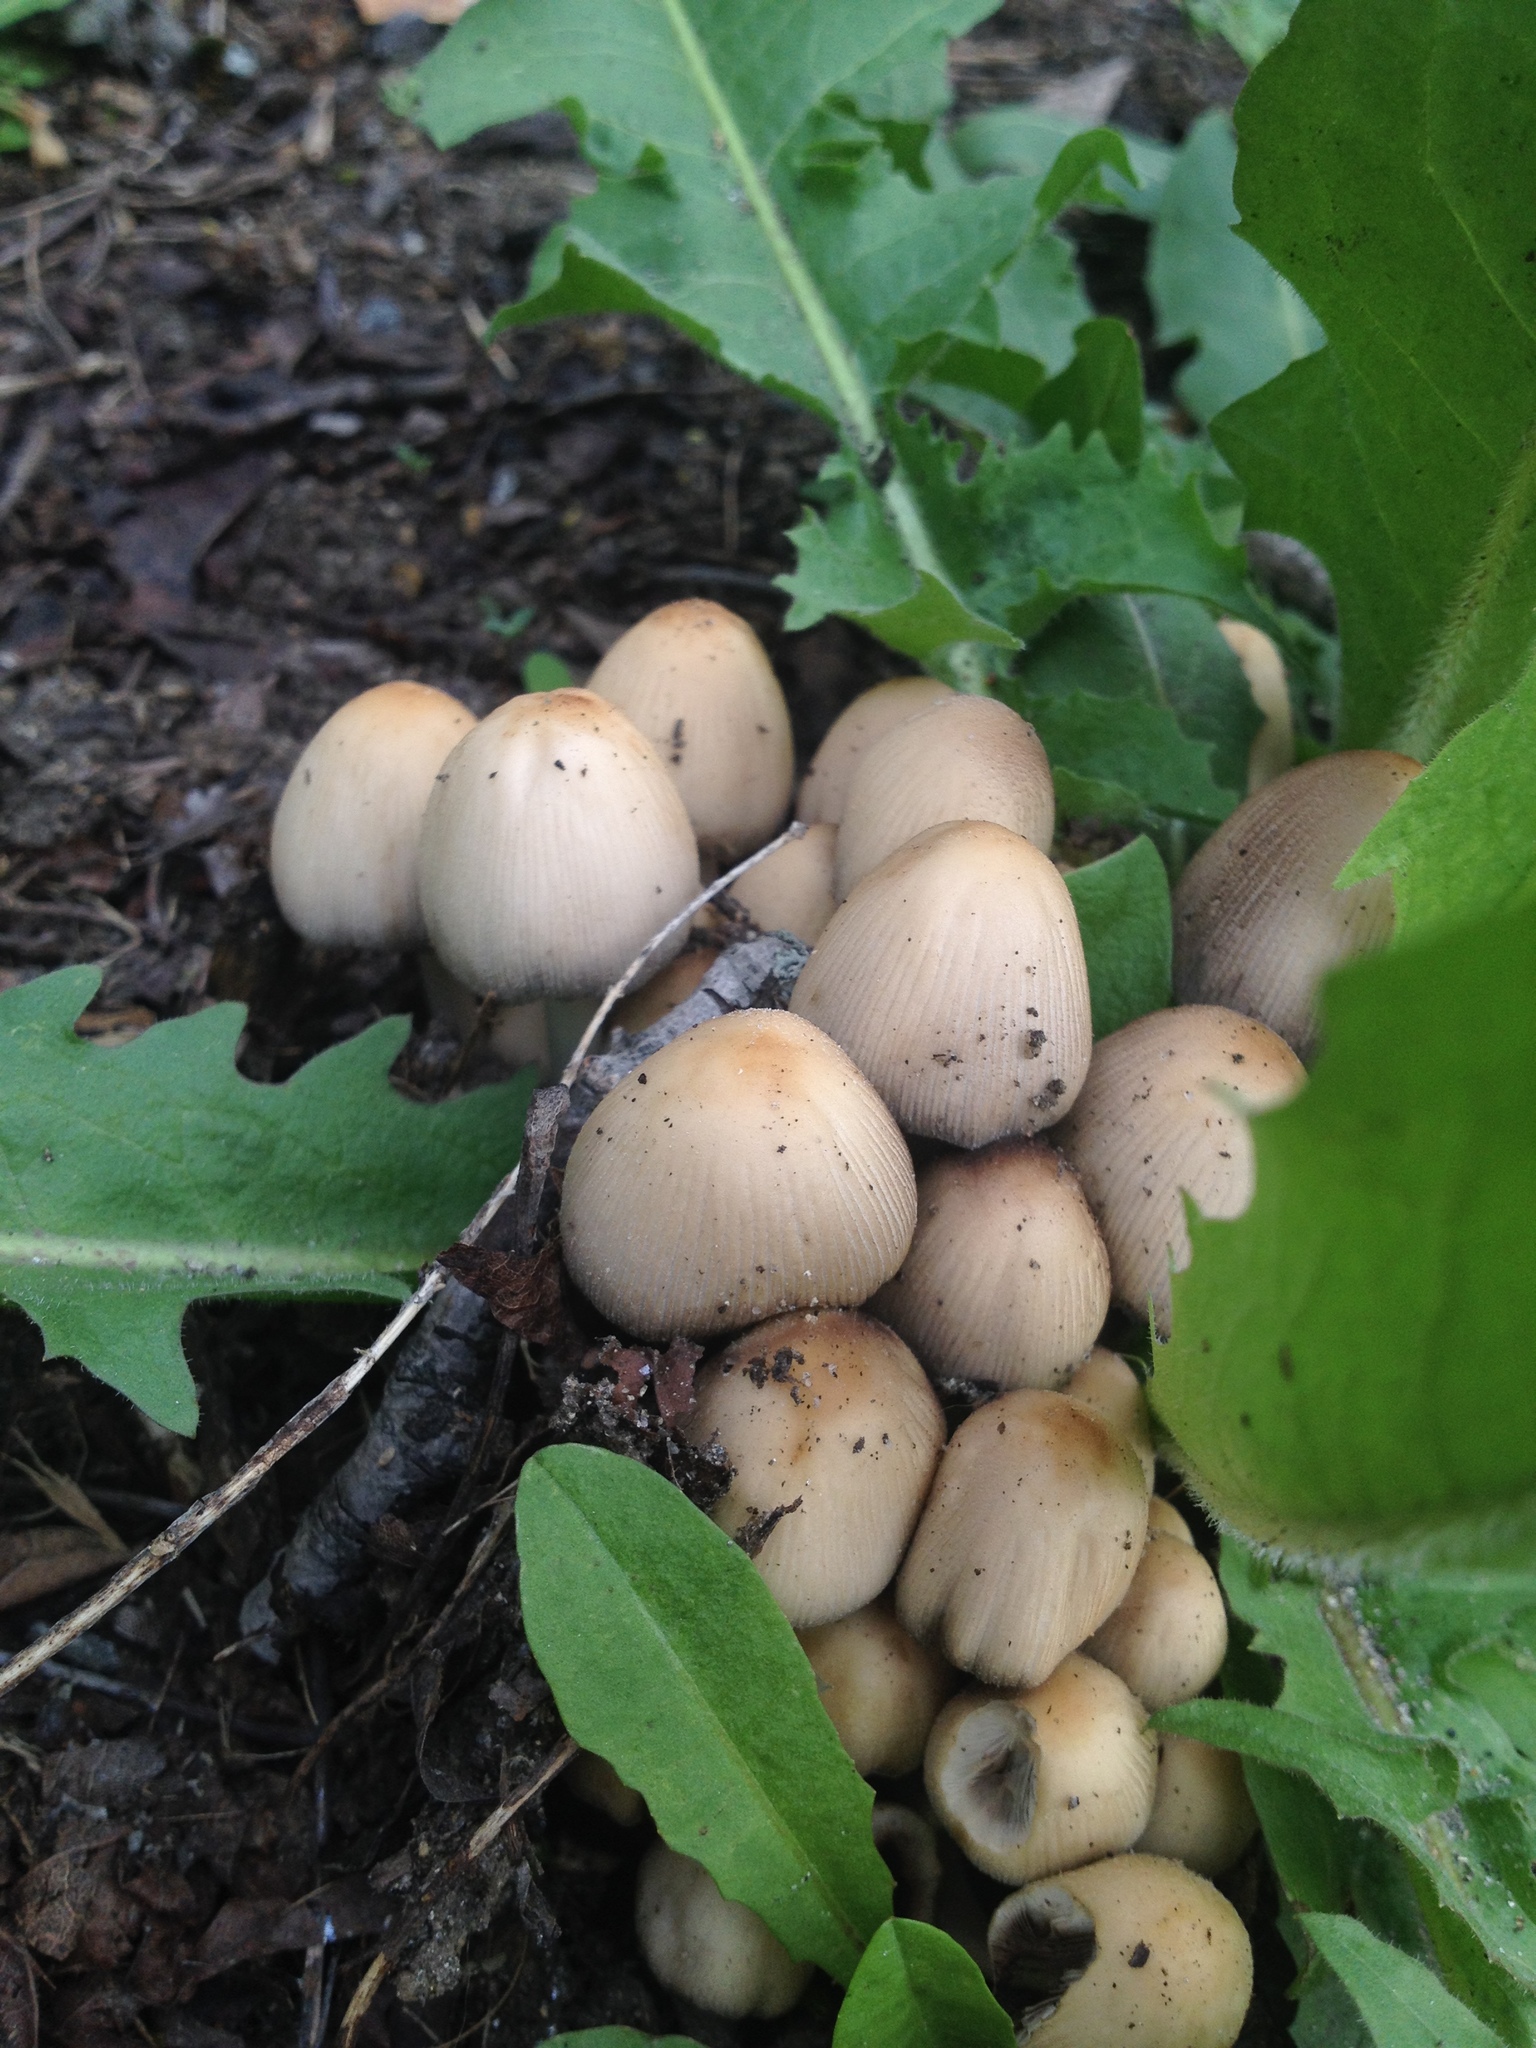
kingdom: Fungi
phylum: Basidiomycota
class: Agaricomycetes
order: Agaricales
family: Psathyrellaceae
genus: Coprinellus
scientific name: Coprinellus micaceus
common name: Glistening ink-cap
